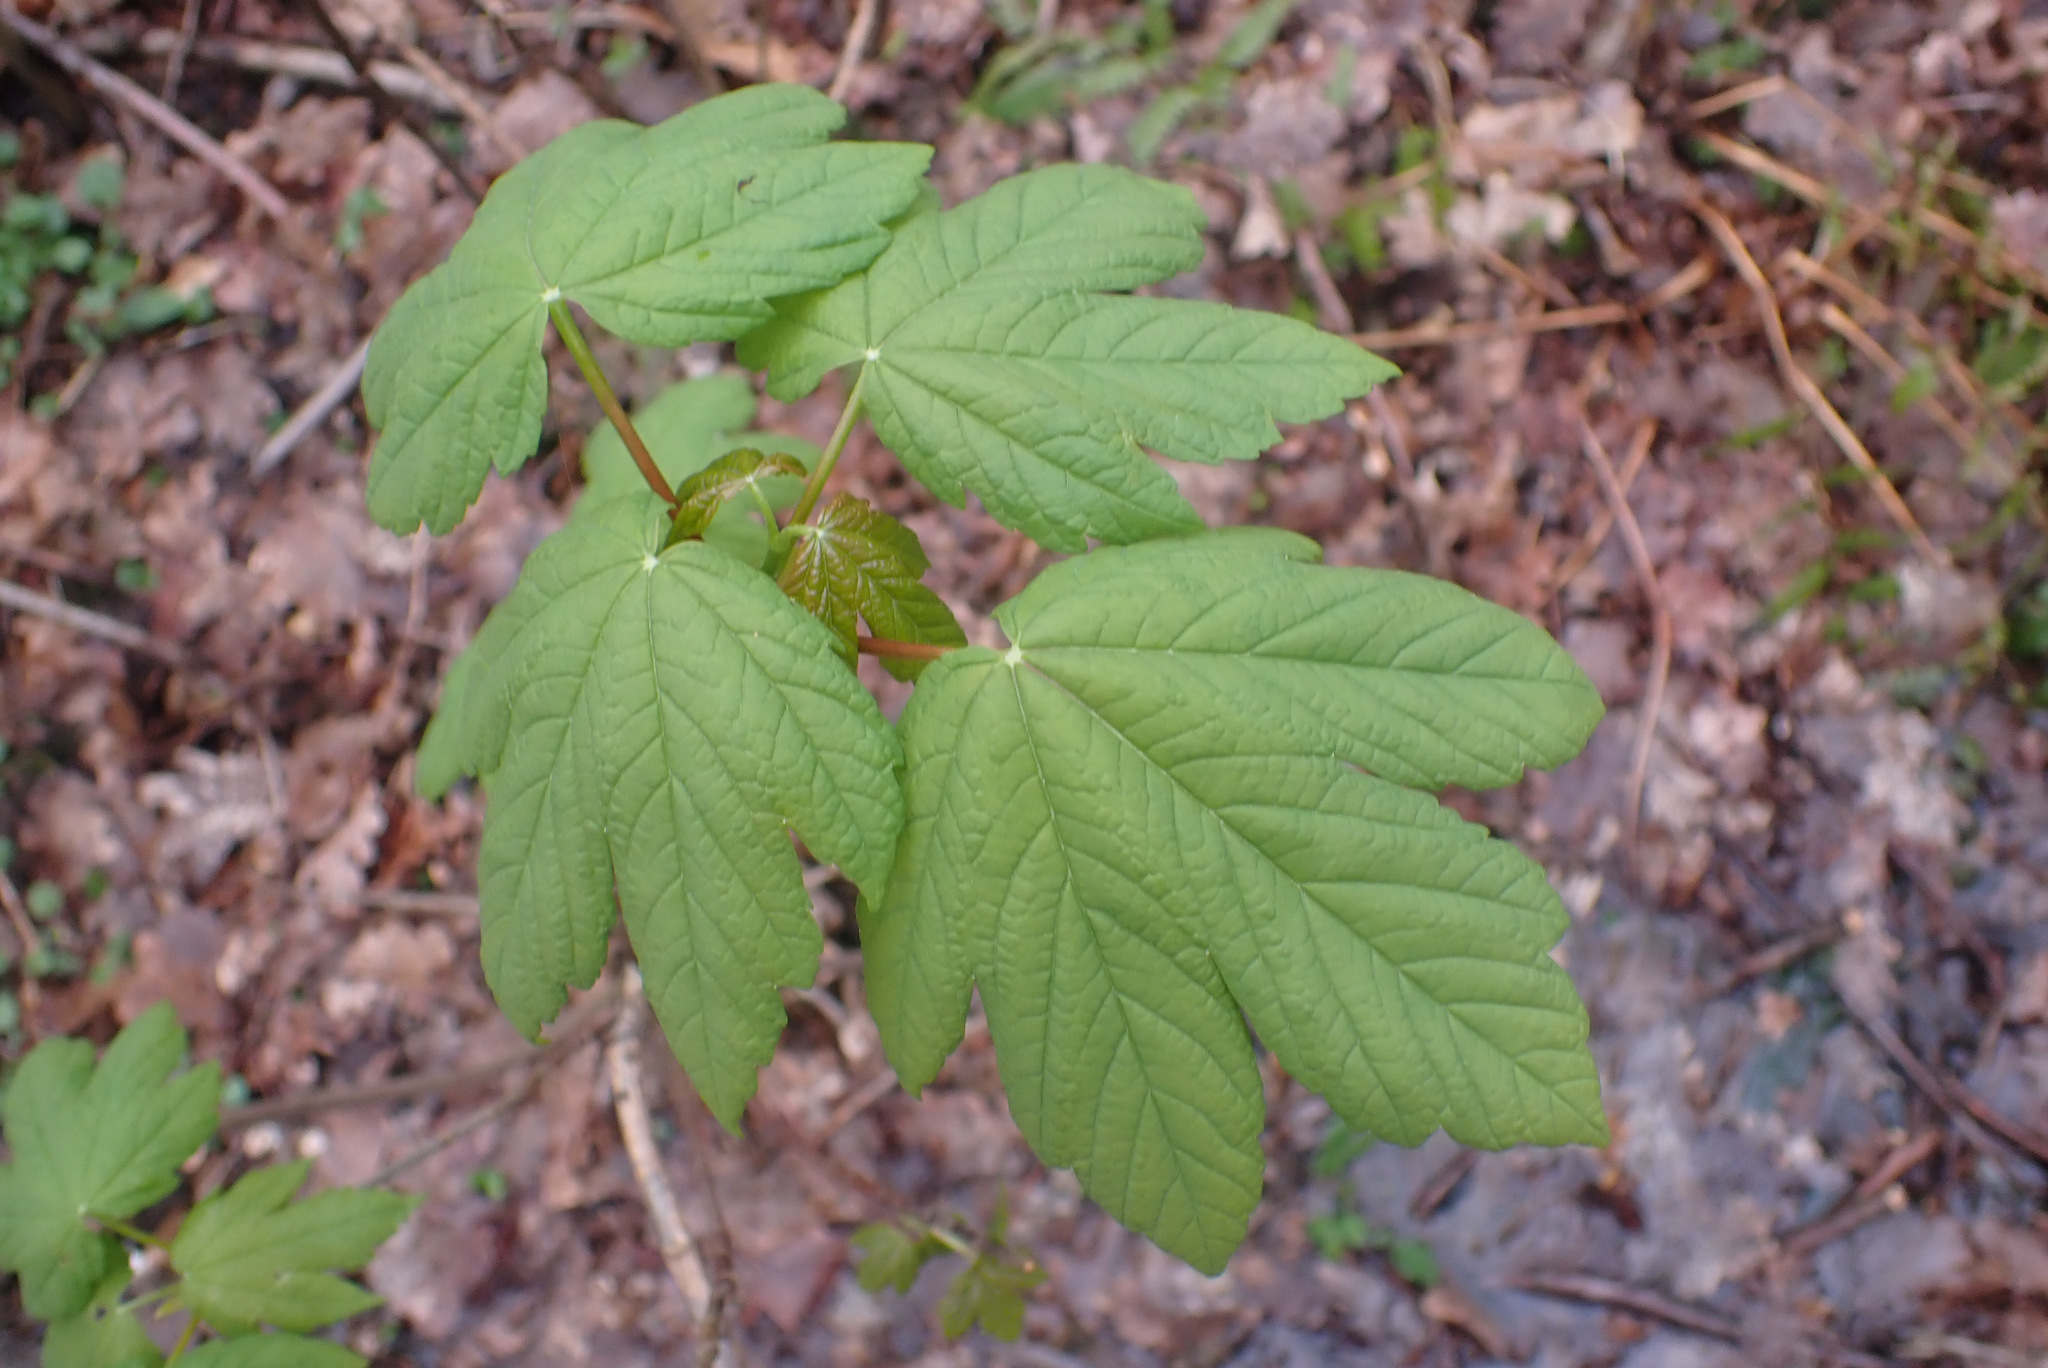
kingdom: Plantae
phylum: Tracheophyta
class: Magnoliopsida
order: Sapindales
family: Sapindaceae
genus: Acer
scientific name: Acer pseudoplatanus
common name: Sycamore
